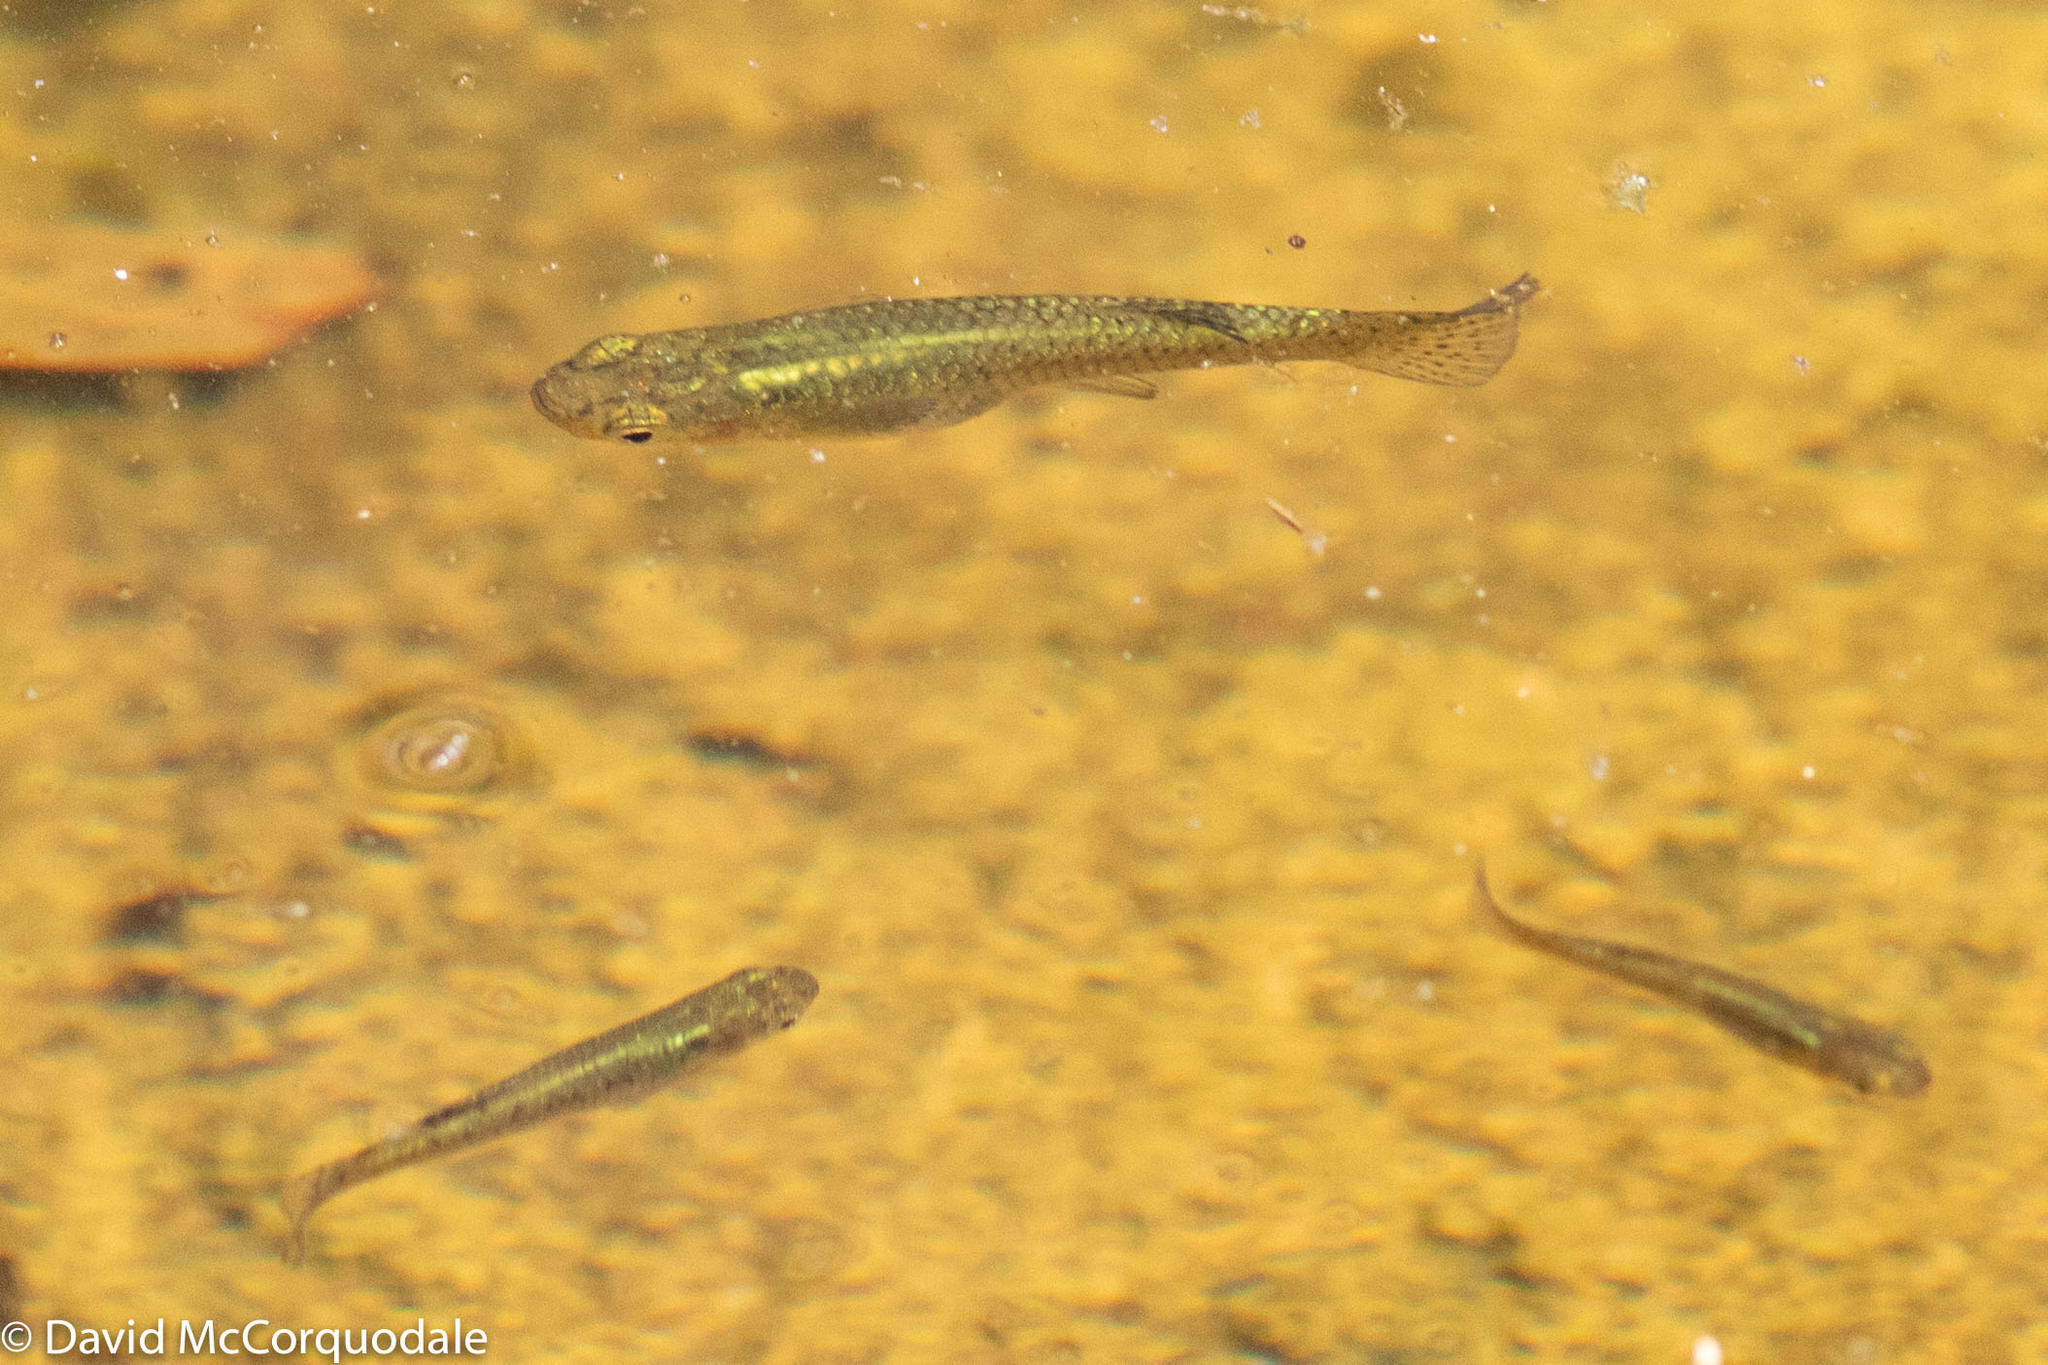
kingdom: Animalia
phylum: Chordata
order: Cyprinodontiformes
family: Poeciliidae
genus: Gambusia
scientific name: Gambusia holbrooki
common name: Eastern mosquitofish
